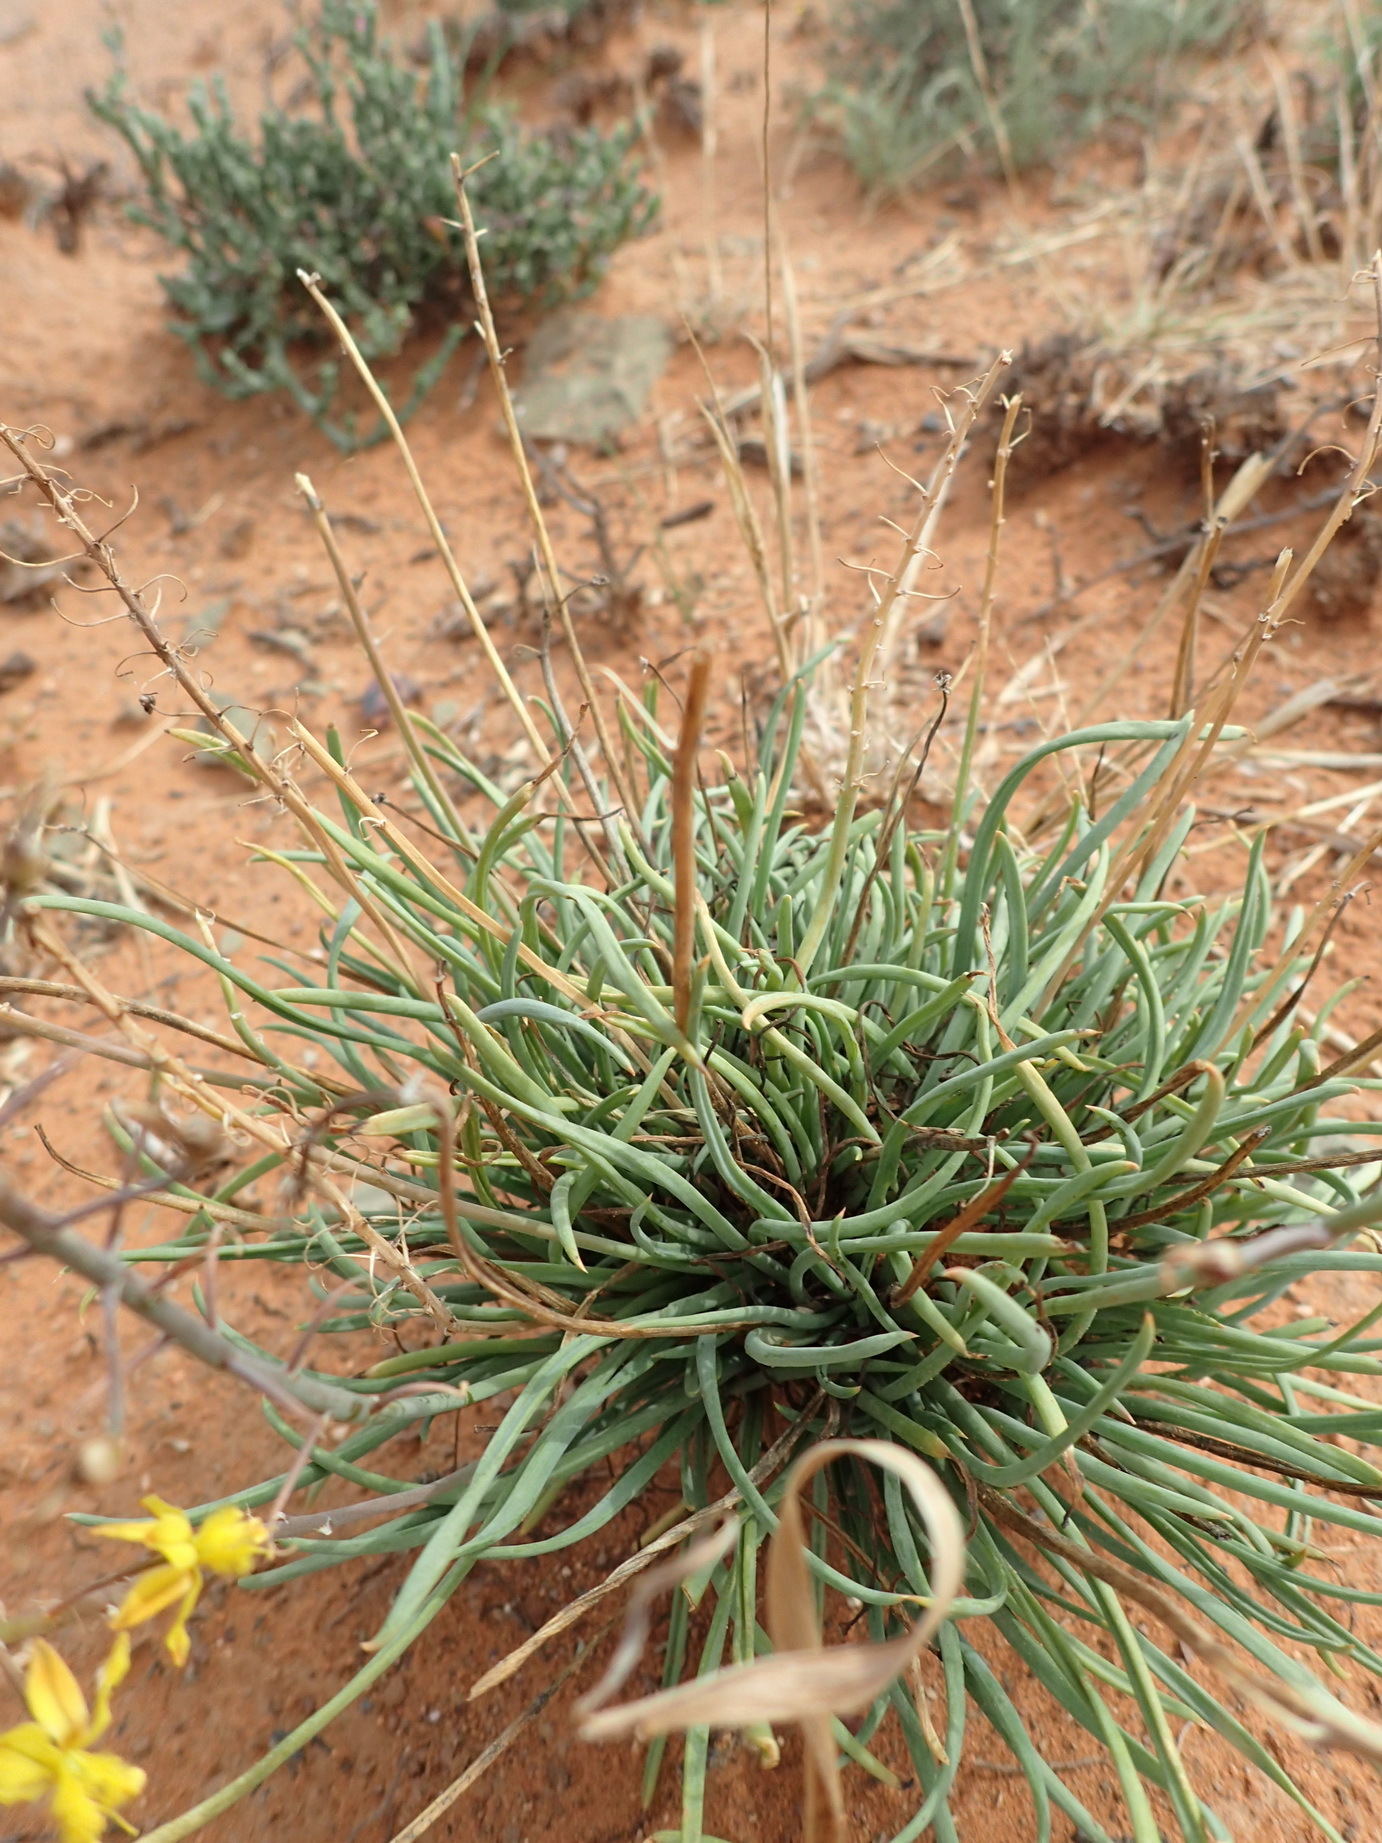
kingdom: Plantae
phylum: Tracheophyta
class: Liliopsida
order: Asparagales
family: Asphodelaceae
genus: Bulbine
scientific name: Bulbine frutescens
